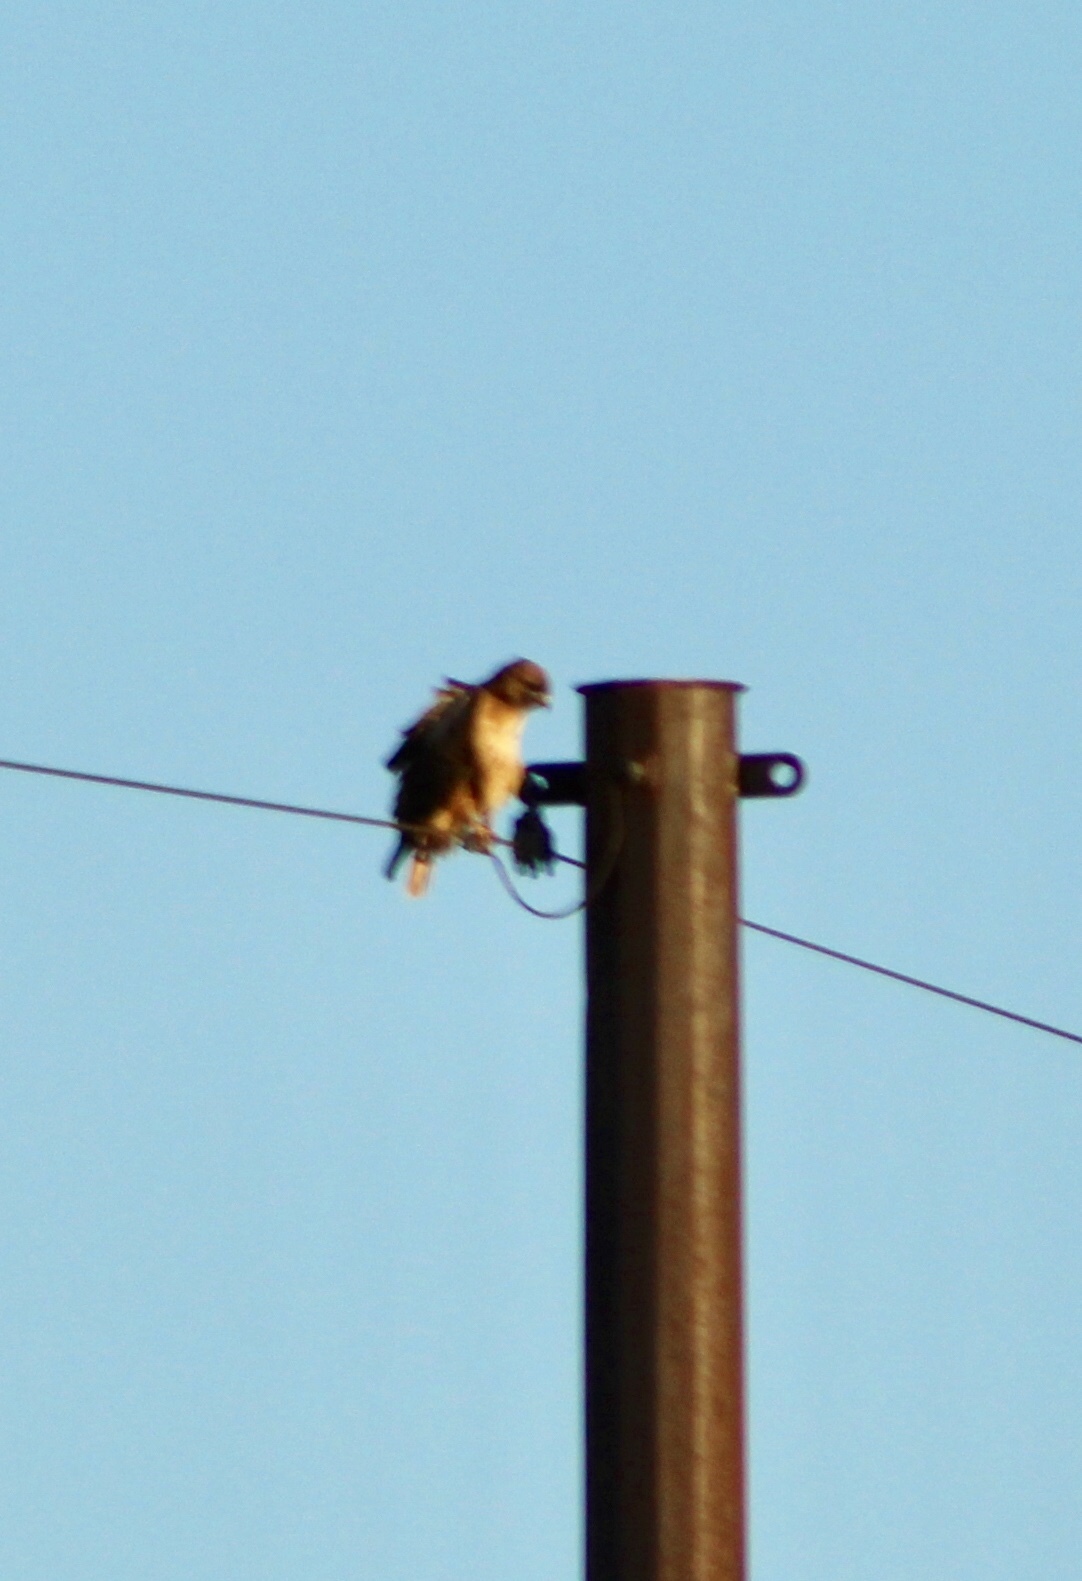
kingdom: Animalia
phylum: Chordata
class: Aves
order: Accipitriformes
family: Accipitridae
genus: Buteo
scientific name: Buteo jamaicensis
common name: Red-tailed hawk
